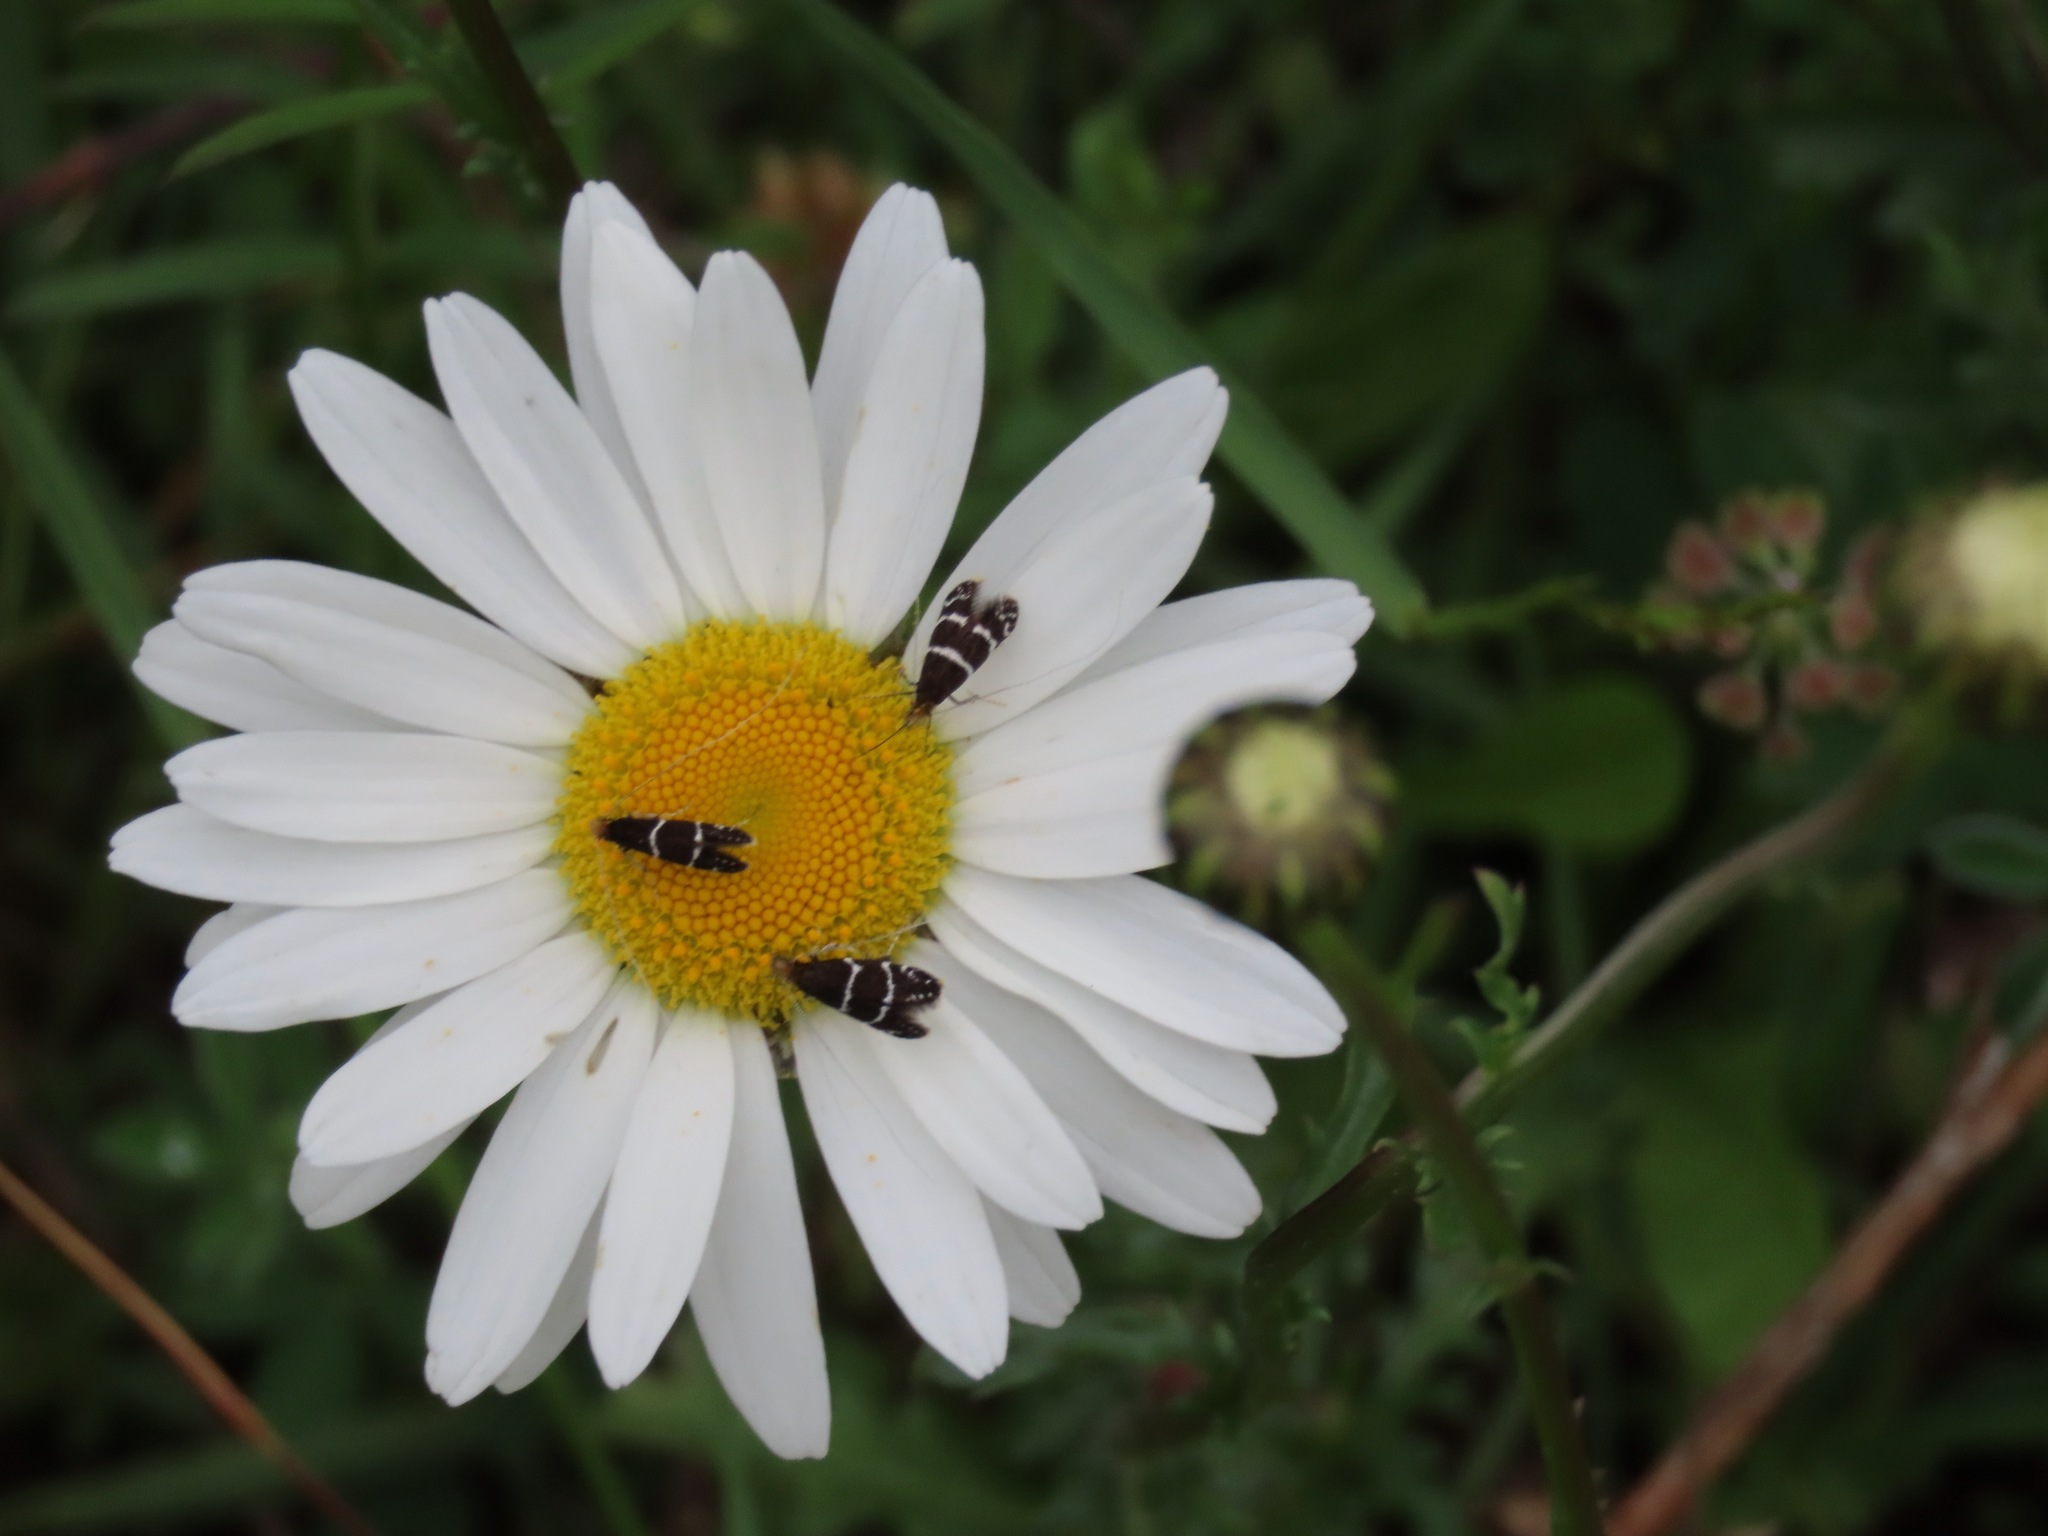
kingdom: Animalia
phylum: Arthropoda
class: Insecta
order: Lepidoptera
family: Adelidae
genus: Adela
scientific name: Adela septentrionella
